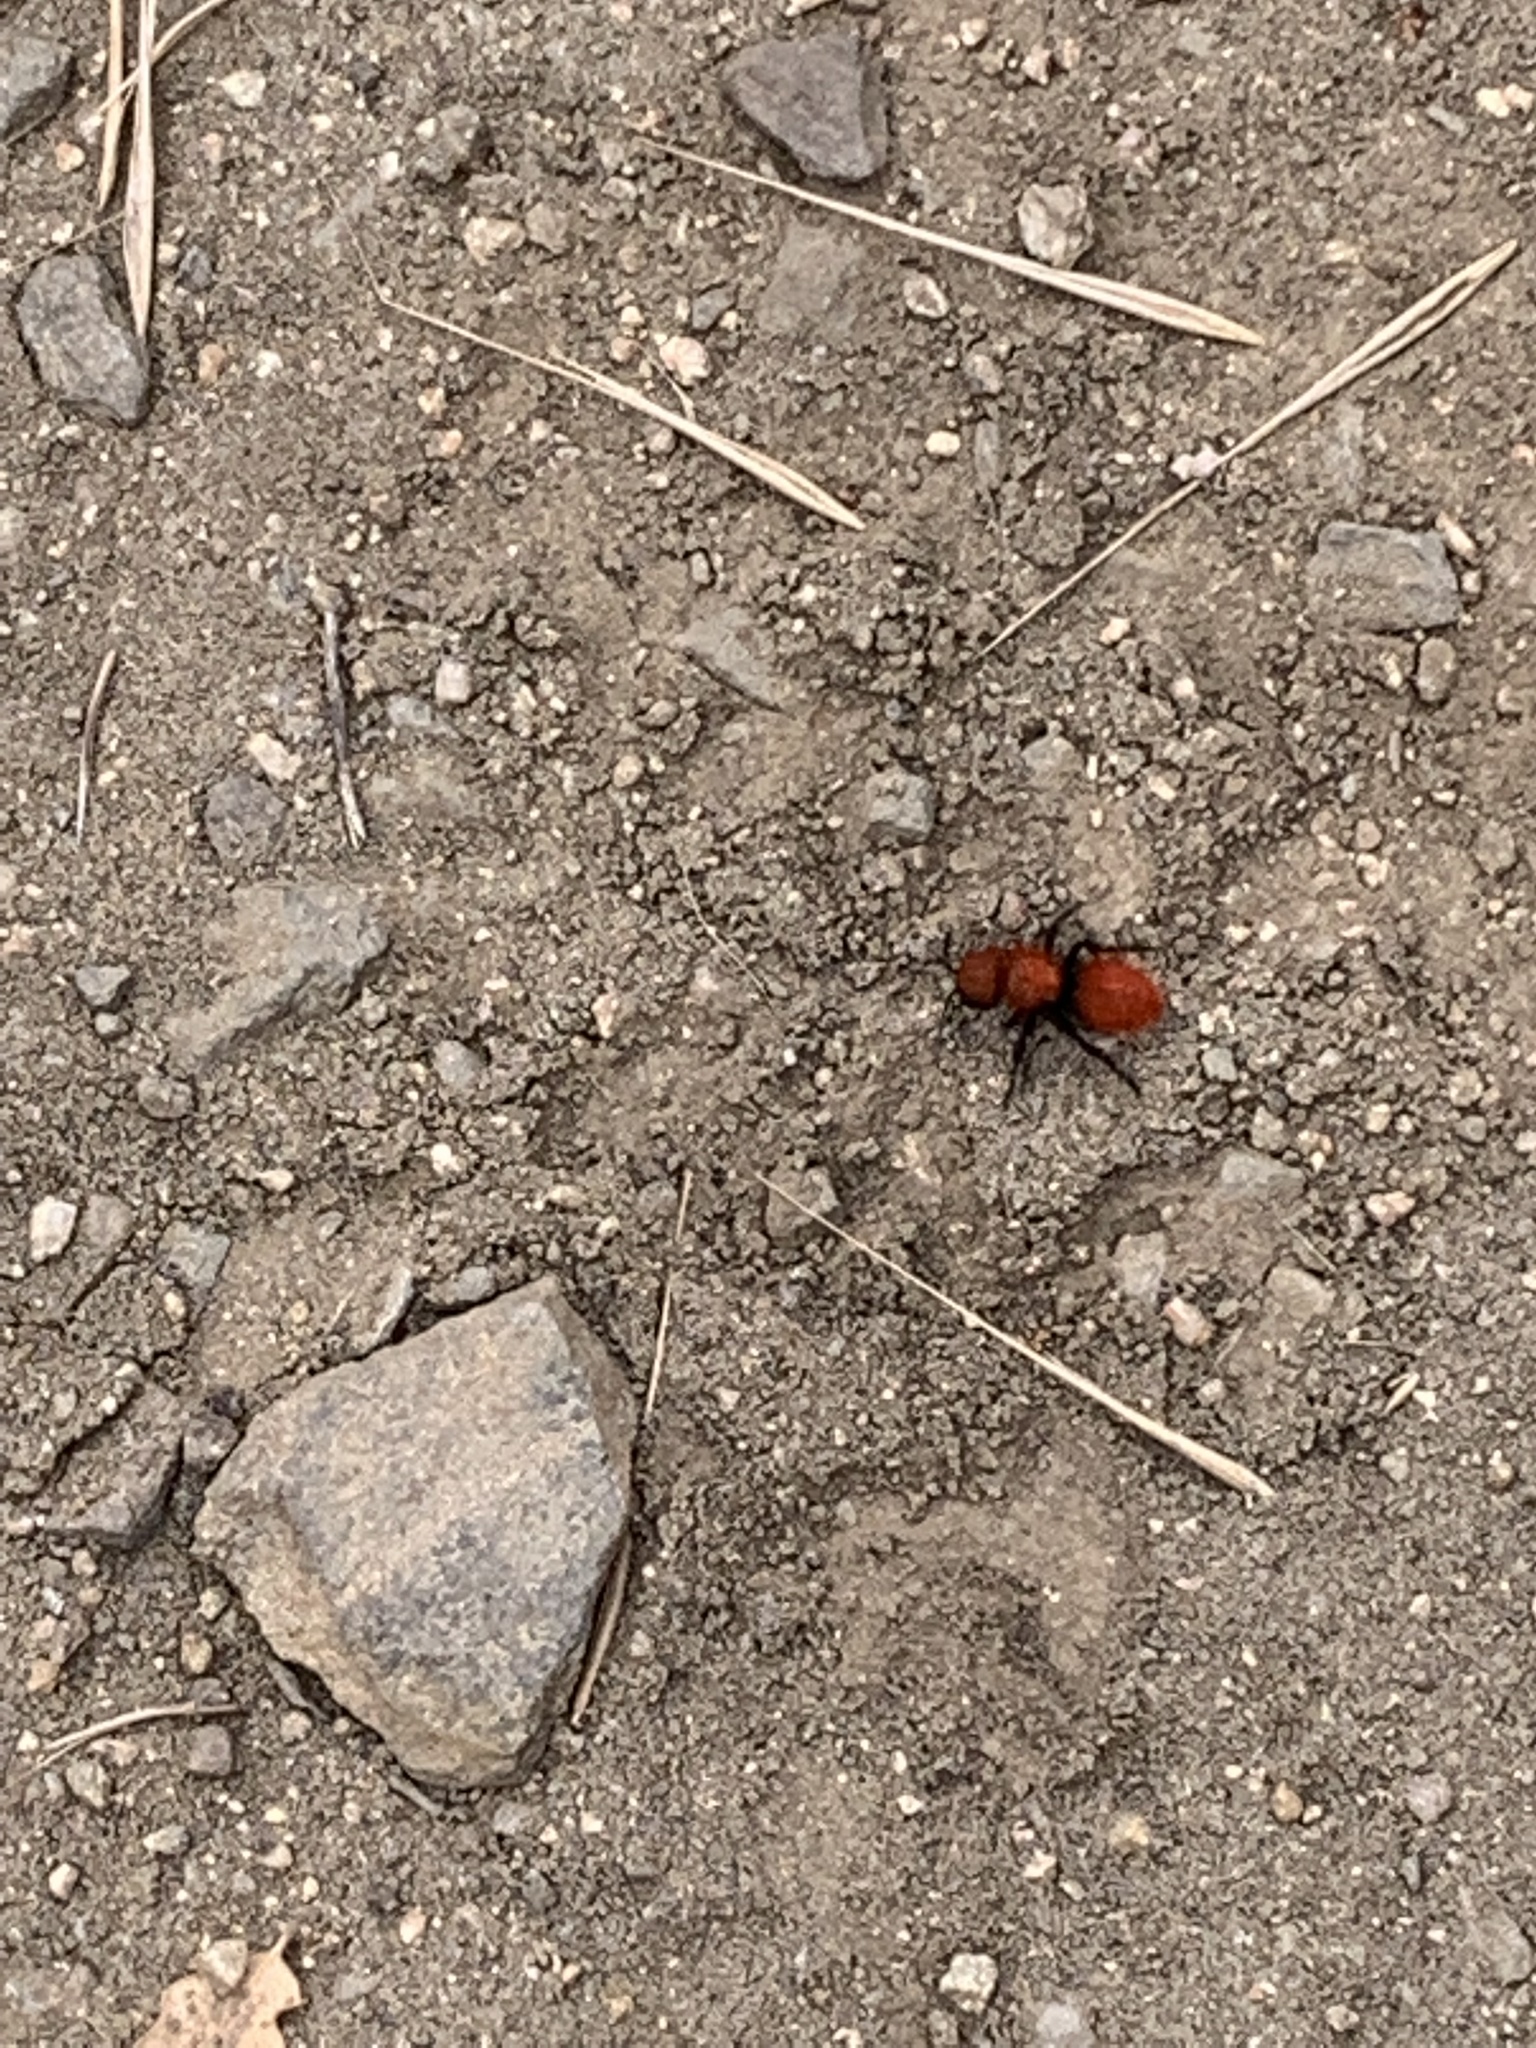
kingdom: Animalia
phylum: Arthropoda
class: Insecta
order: Hymenoptera
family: Mutillidae
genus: Dasymutilla
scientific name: Dasymutilla
